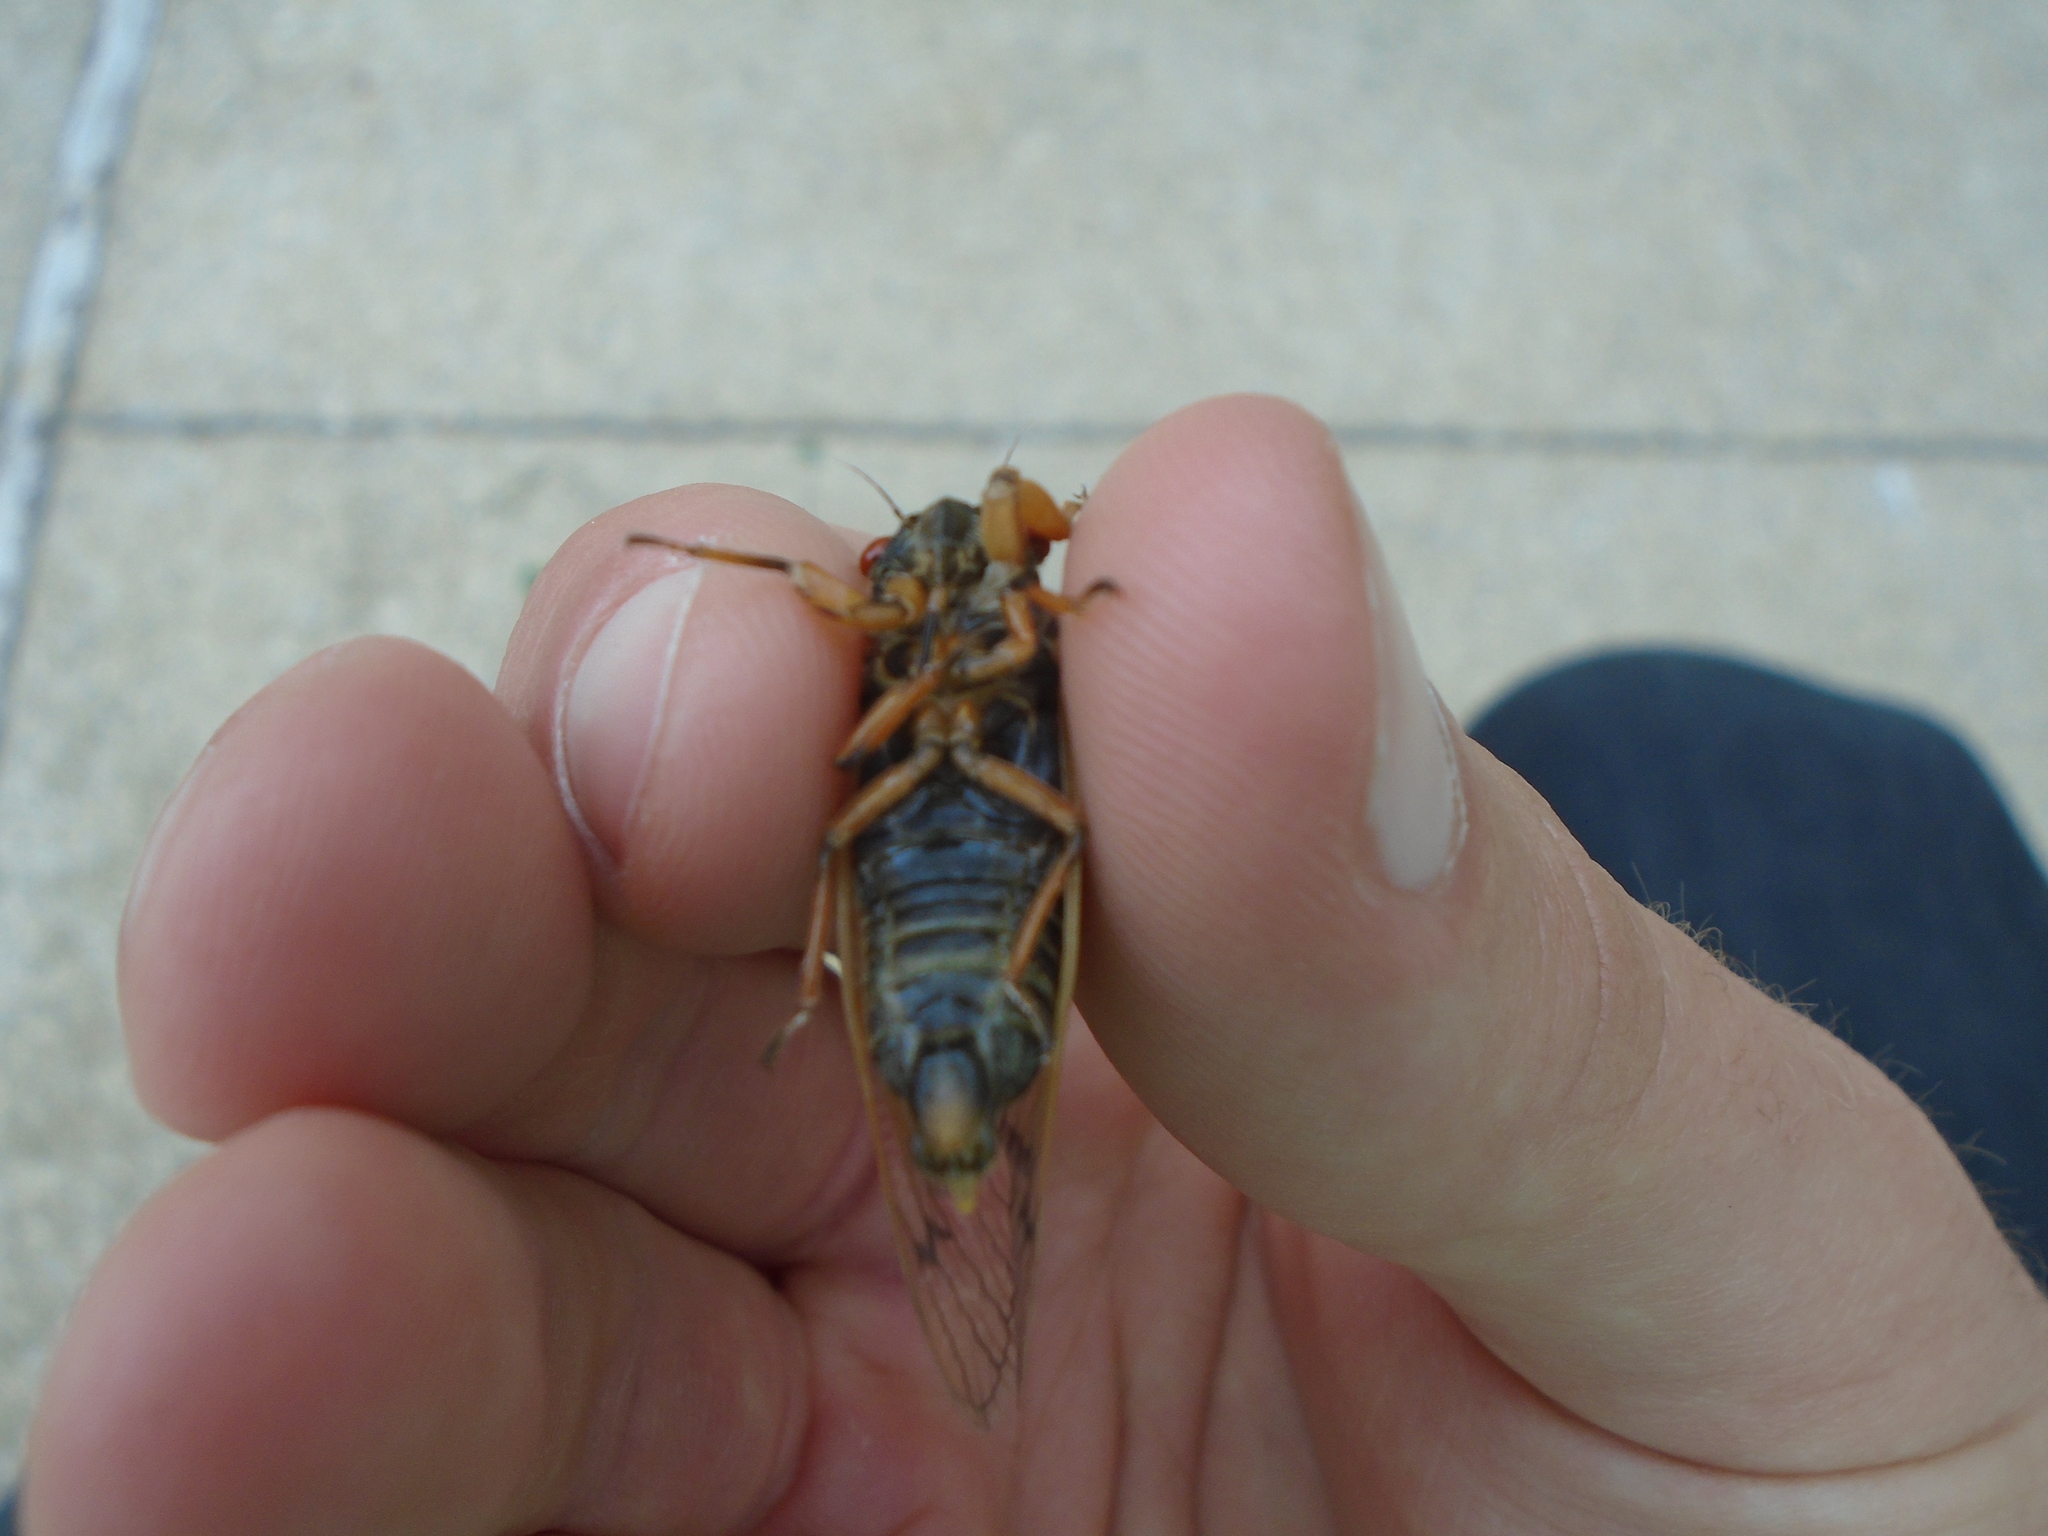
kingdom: Animalia
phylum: Arthropoda
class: Insecta
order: Hemiptera
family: Cicadidae
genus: Magicicada
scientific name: Magicicada cassini
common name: Cassin's 17-year cicada
